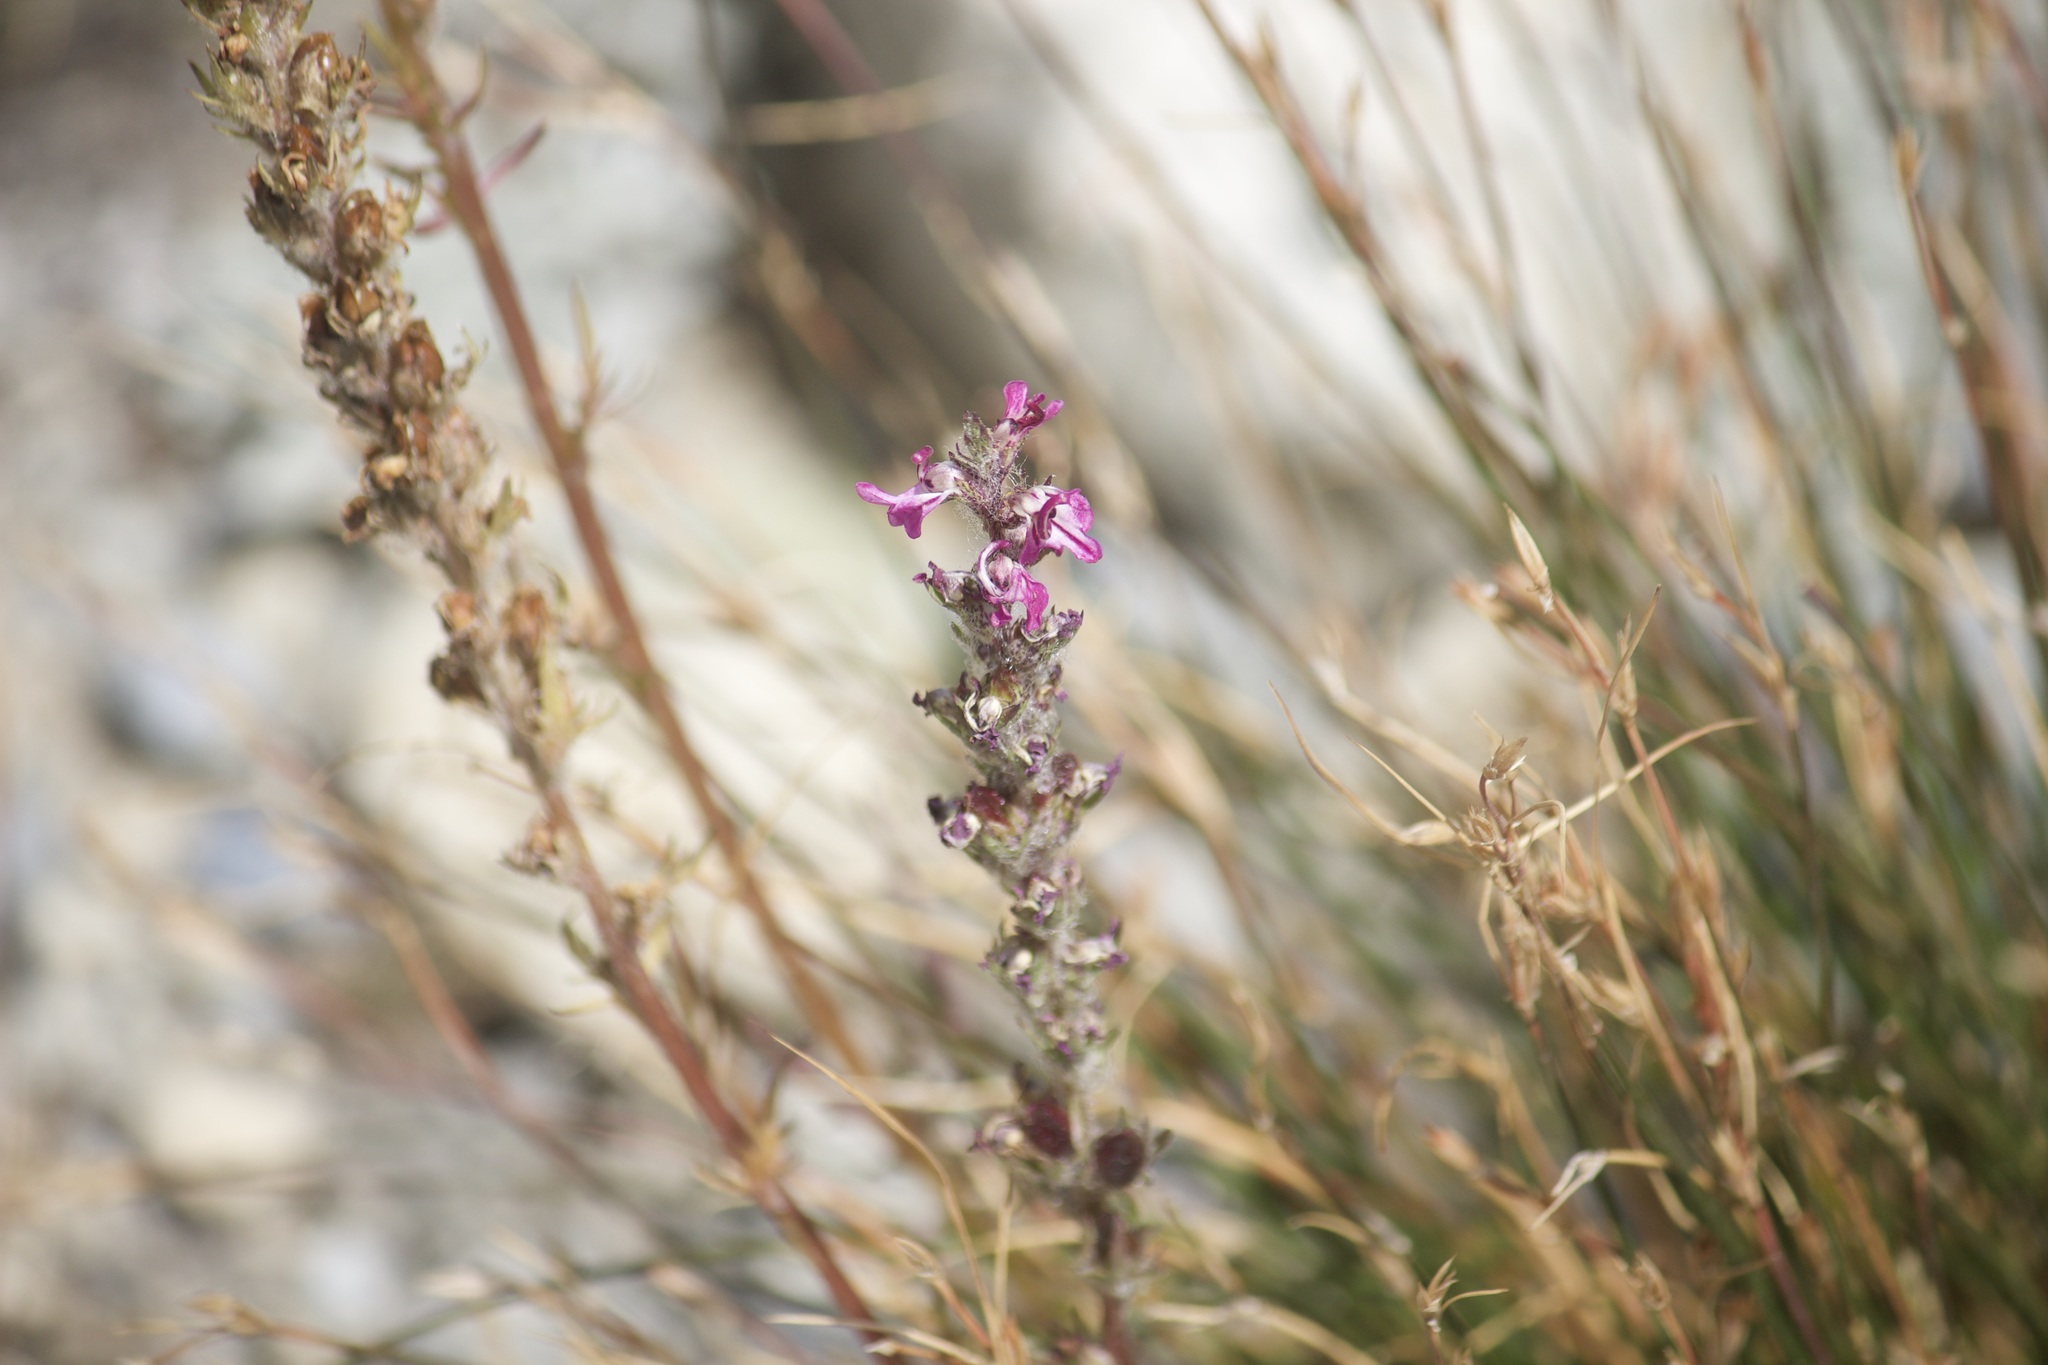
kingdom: Plantae
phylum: Tracheophyta
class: Magnoliopsida
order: Lamiales
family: Orobanchaceae
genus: Pedicularis
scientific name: Pedicularis attollens
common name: Slender pedicularis
